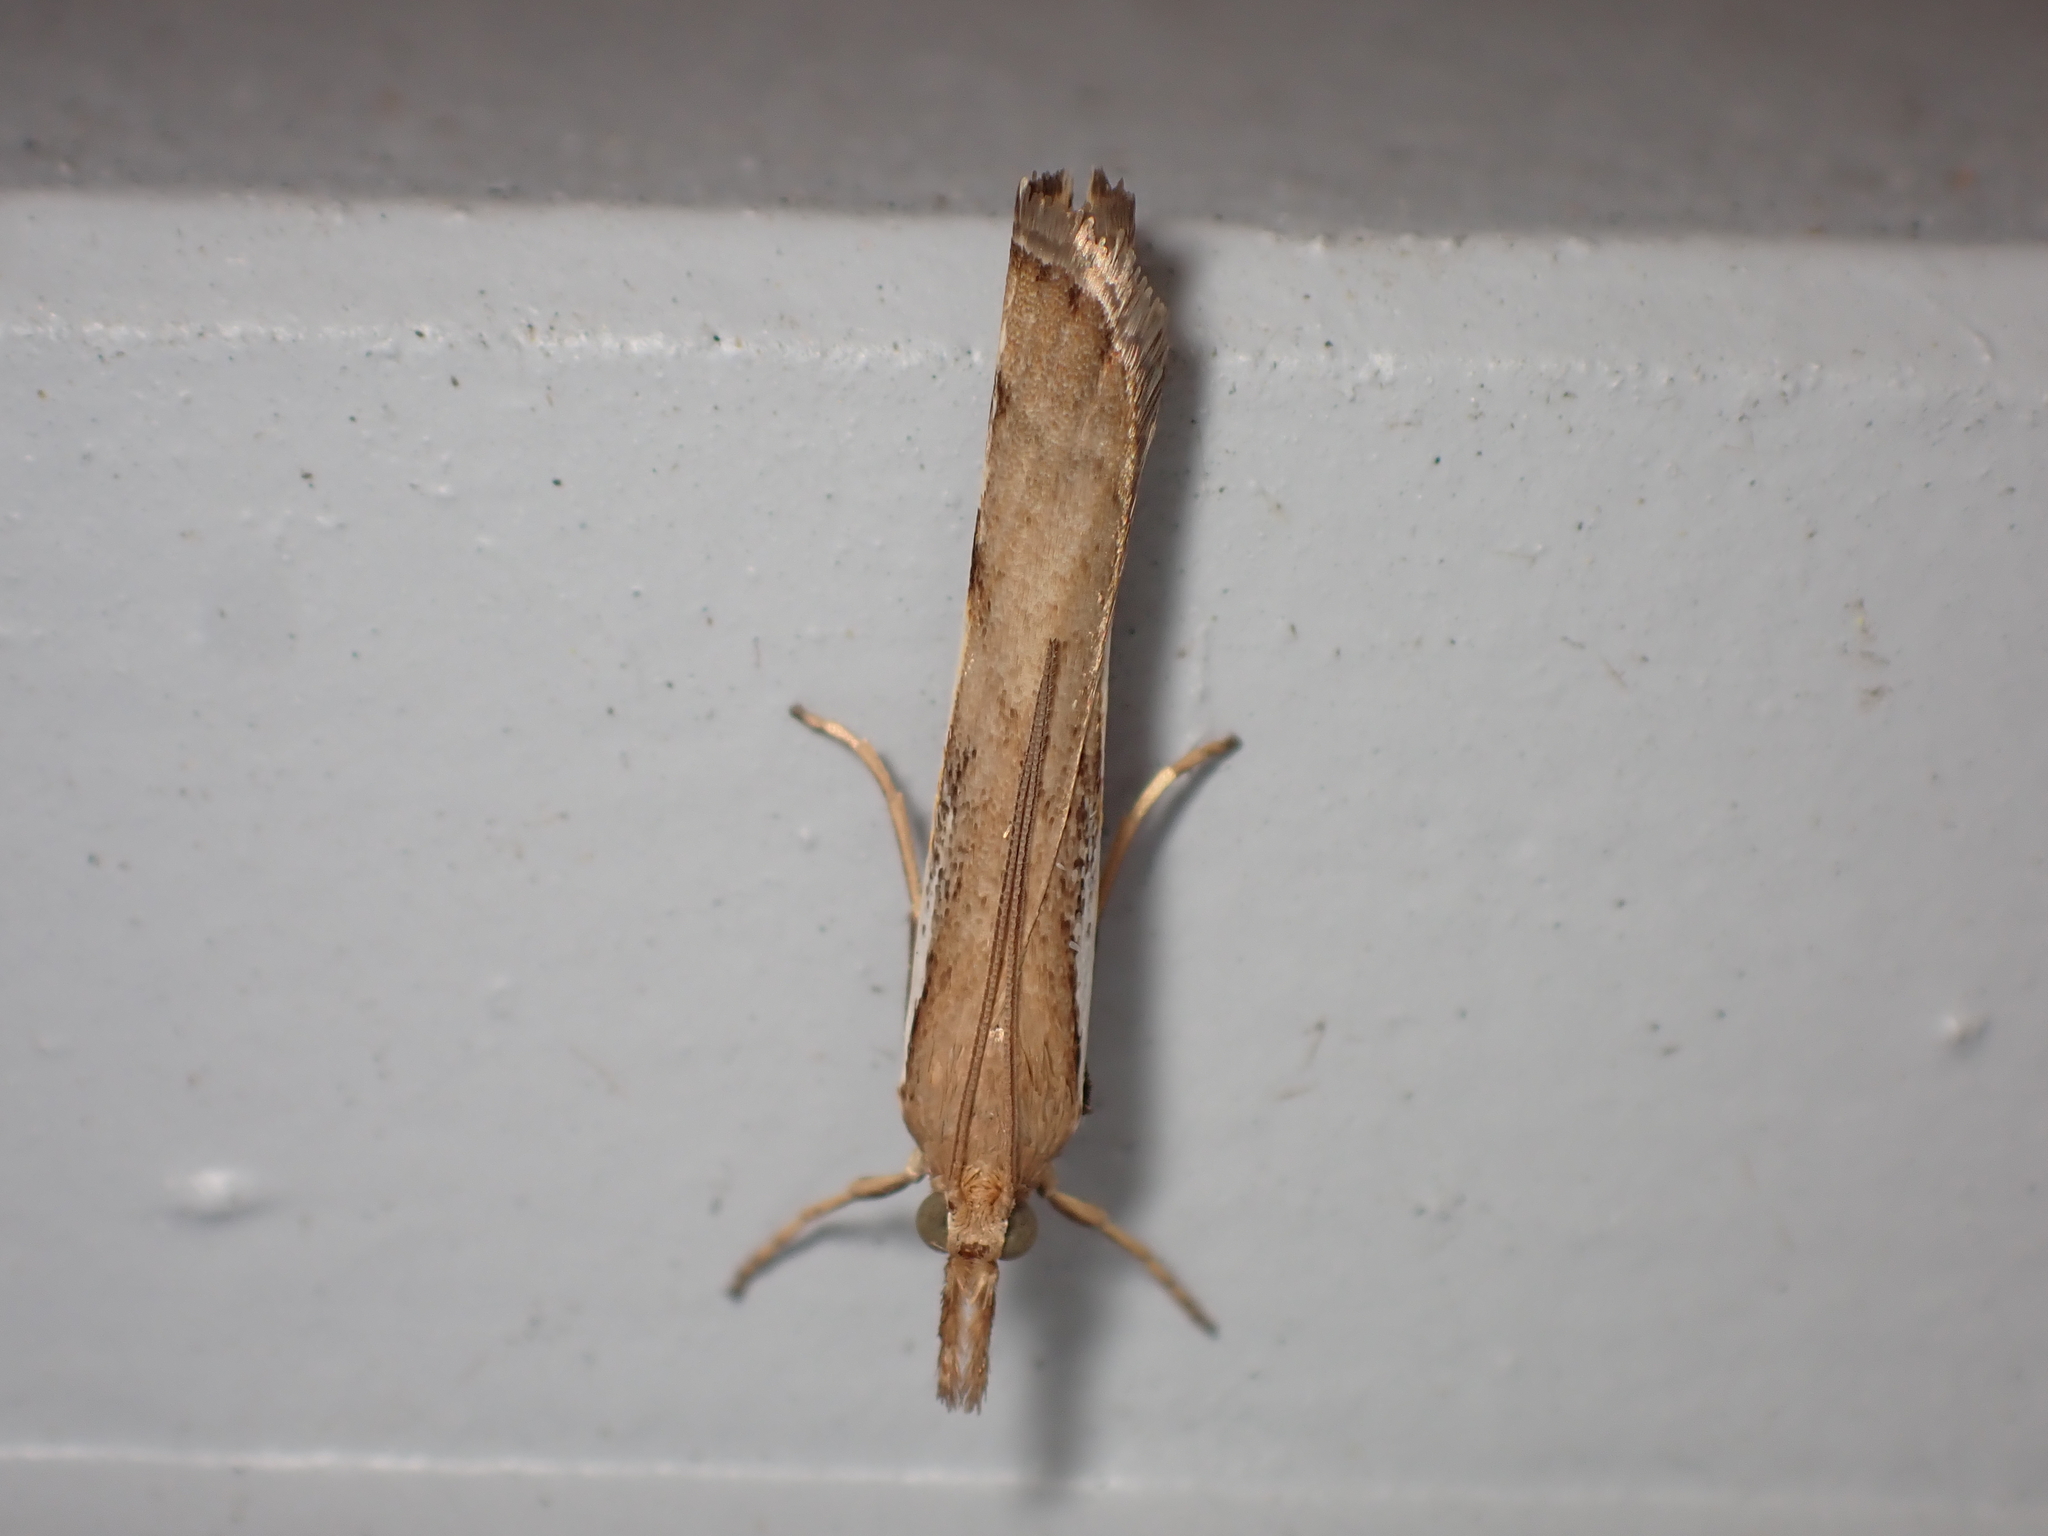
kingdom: Animalia
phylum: Arthropoda
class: Insecta
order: Lepidoptera
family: Crambidae
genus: Orocrambus
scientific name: Orocrambus flexuosellus
